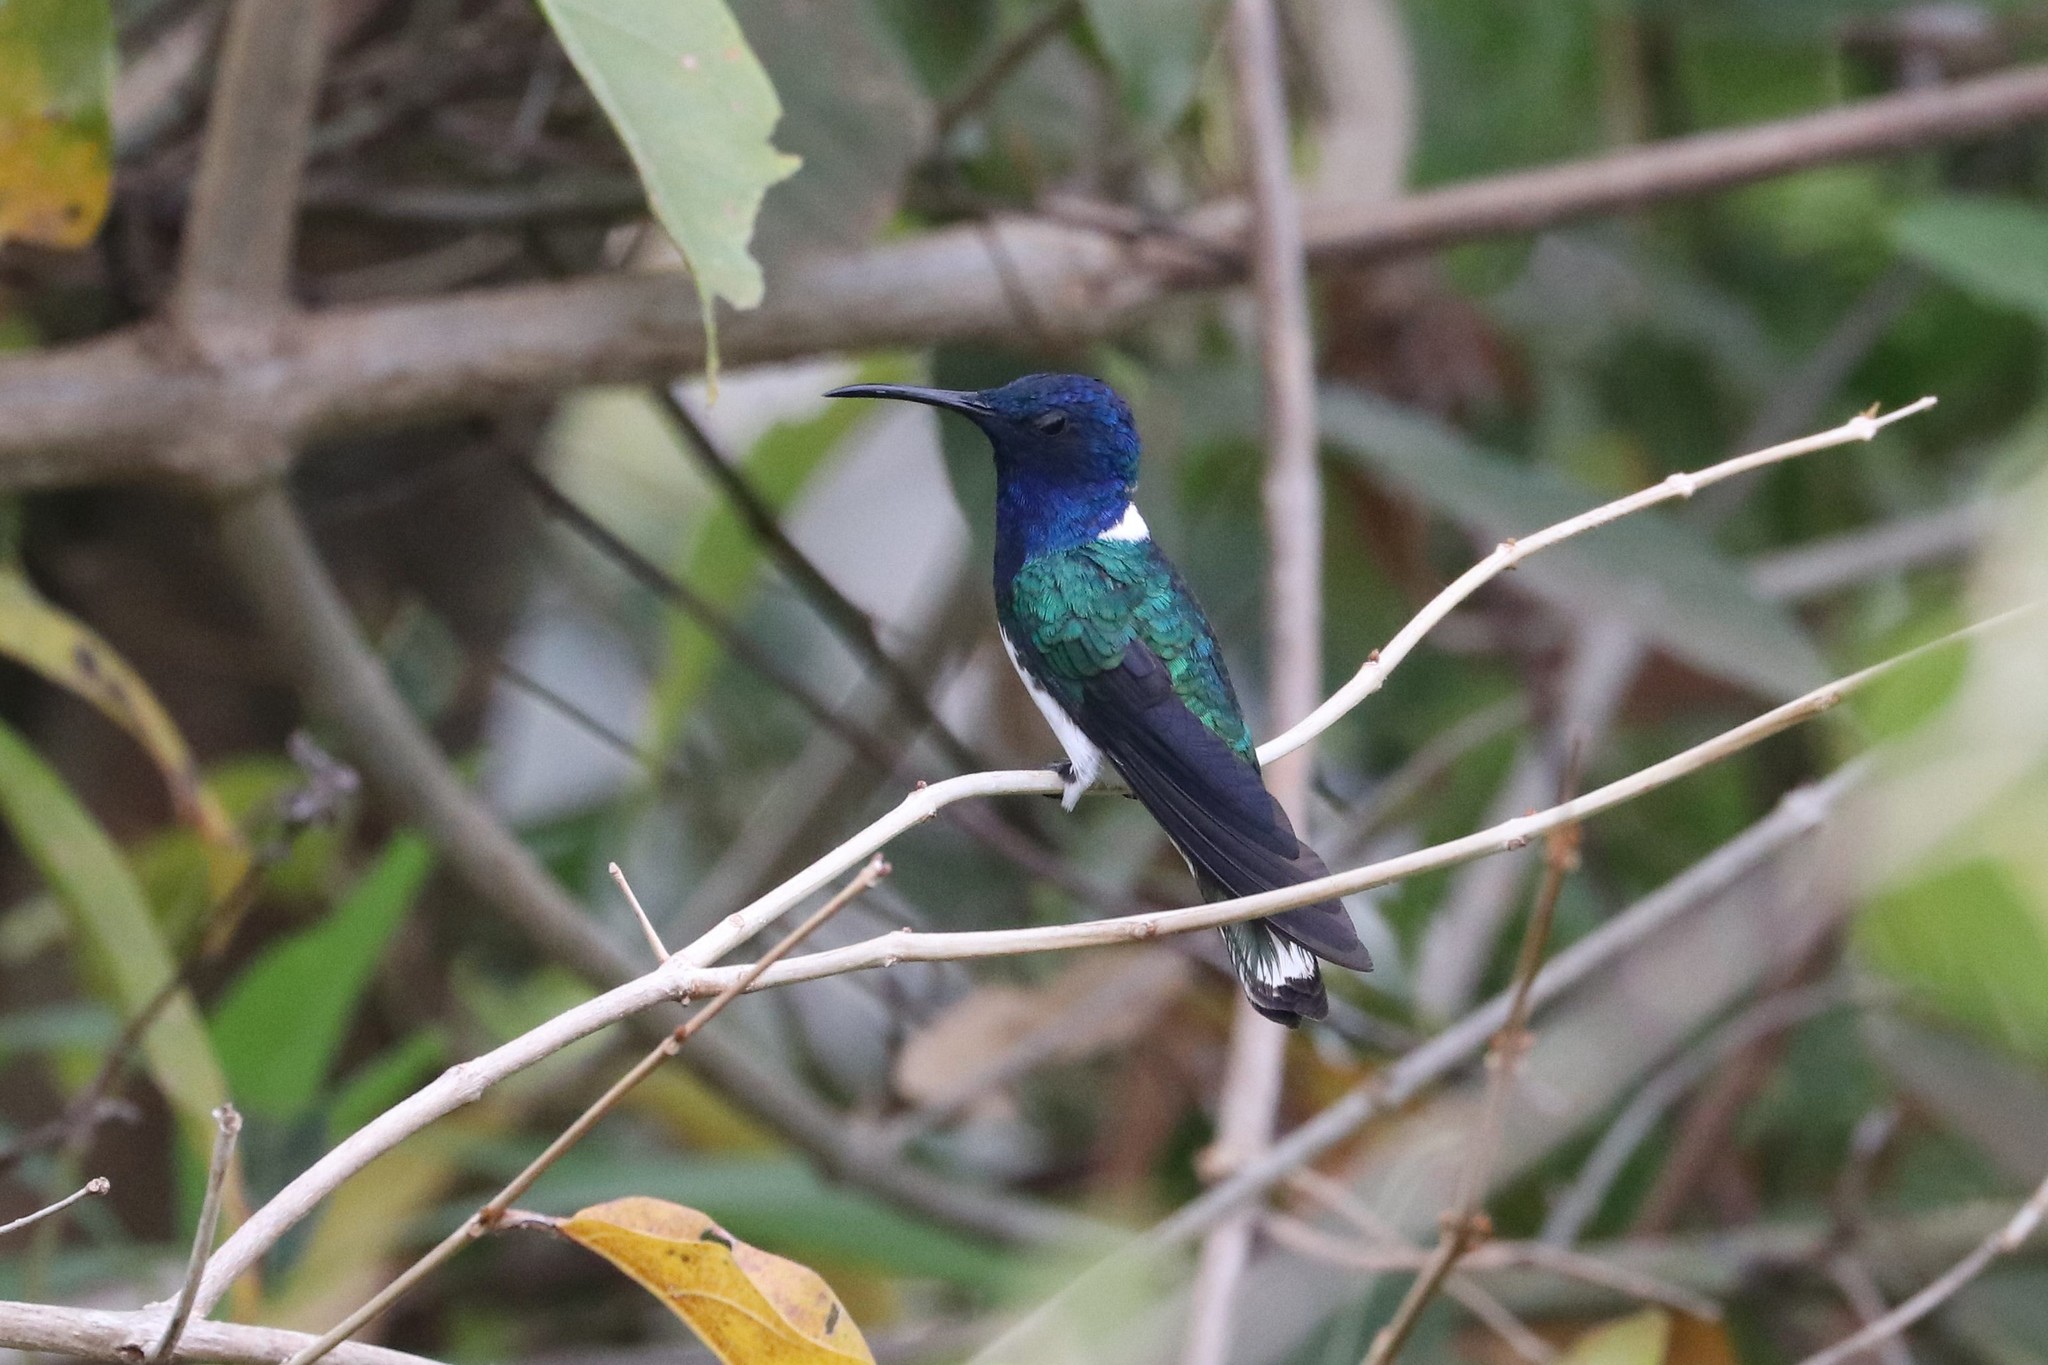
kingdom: Animalia
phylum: Chordata
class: Aves
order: Apodiformes
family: Trochilidae
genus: Florisuga
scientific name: Florisuga mellivora
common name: White-necked jacobin
